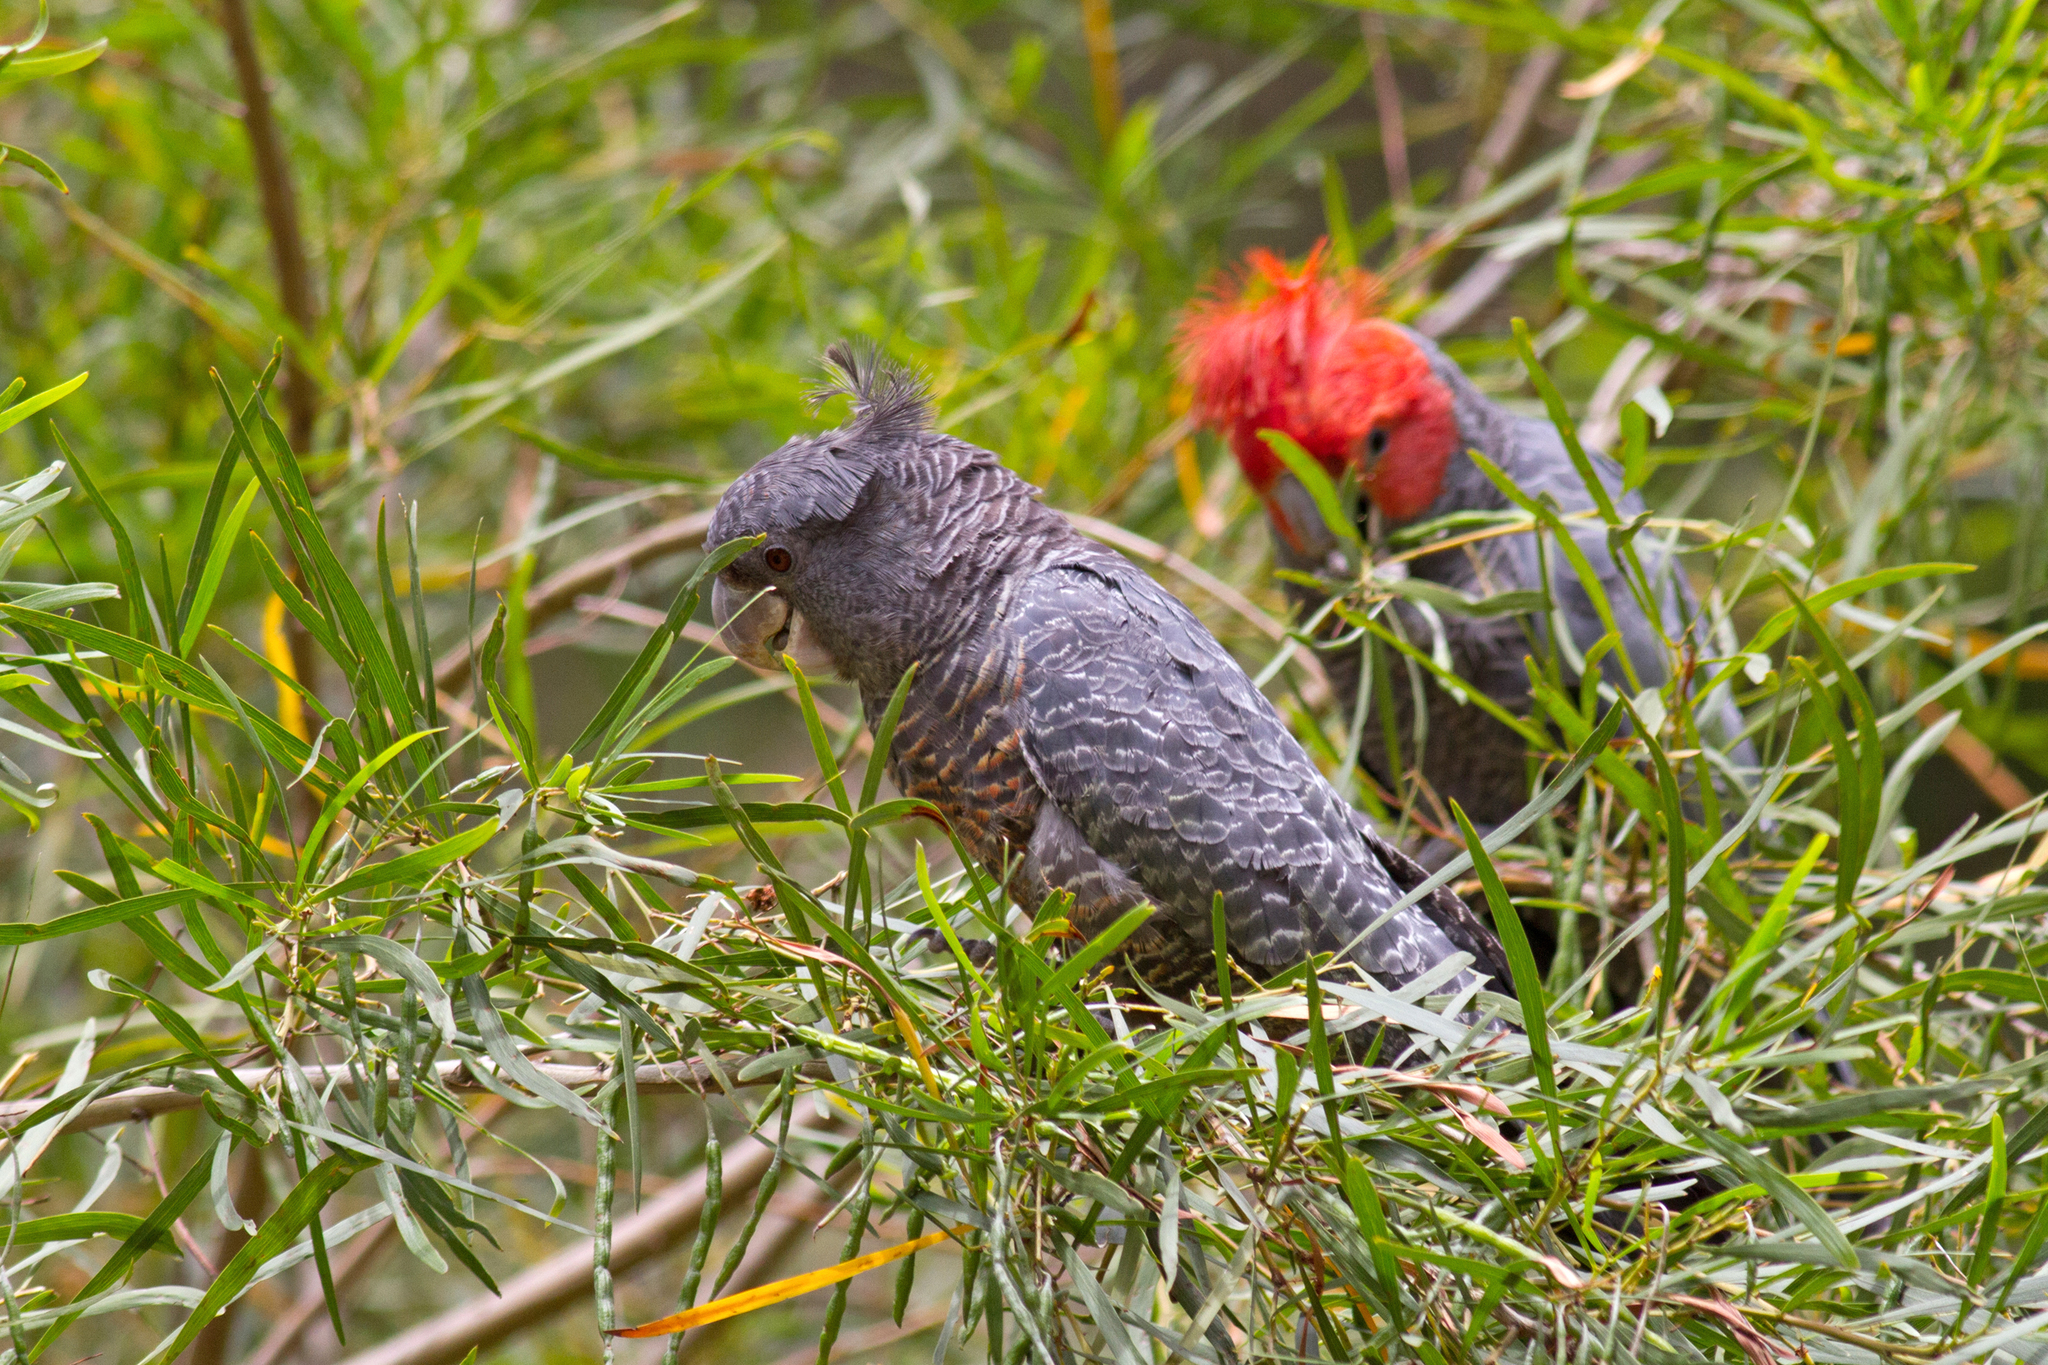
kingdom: Animalia
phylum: Chordata
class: Aves
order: Psittaciformes
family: Psittacidae
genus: Callocephalon
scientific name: Callocephalon fimbriatum
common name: Gang-gang cockatoo
